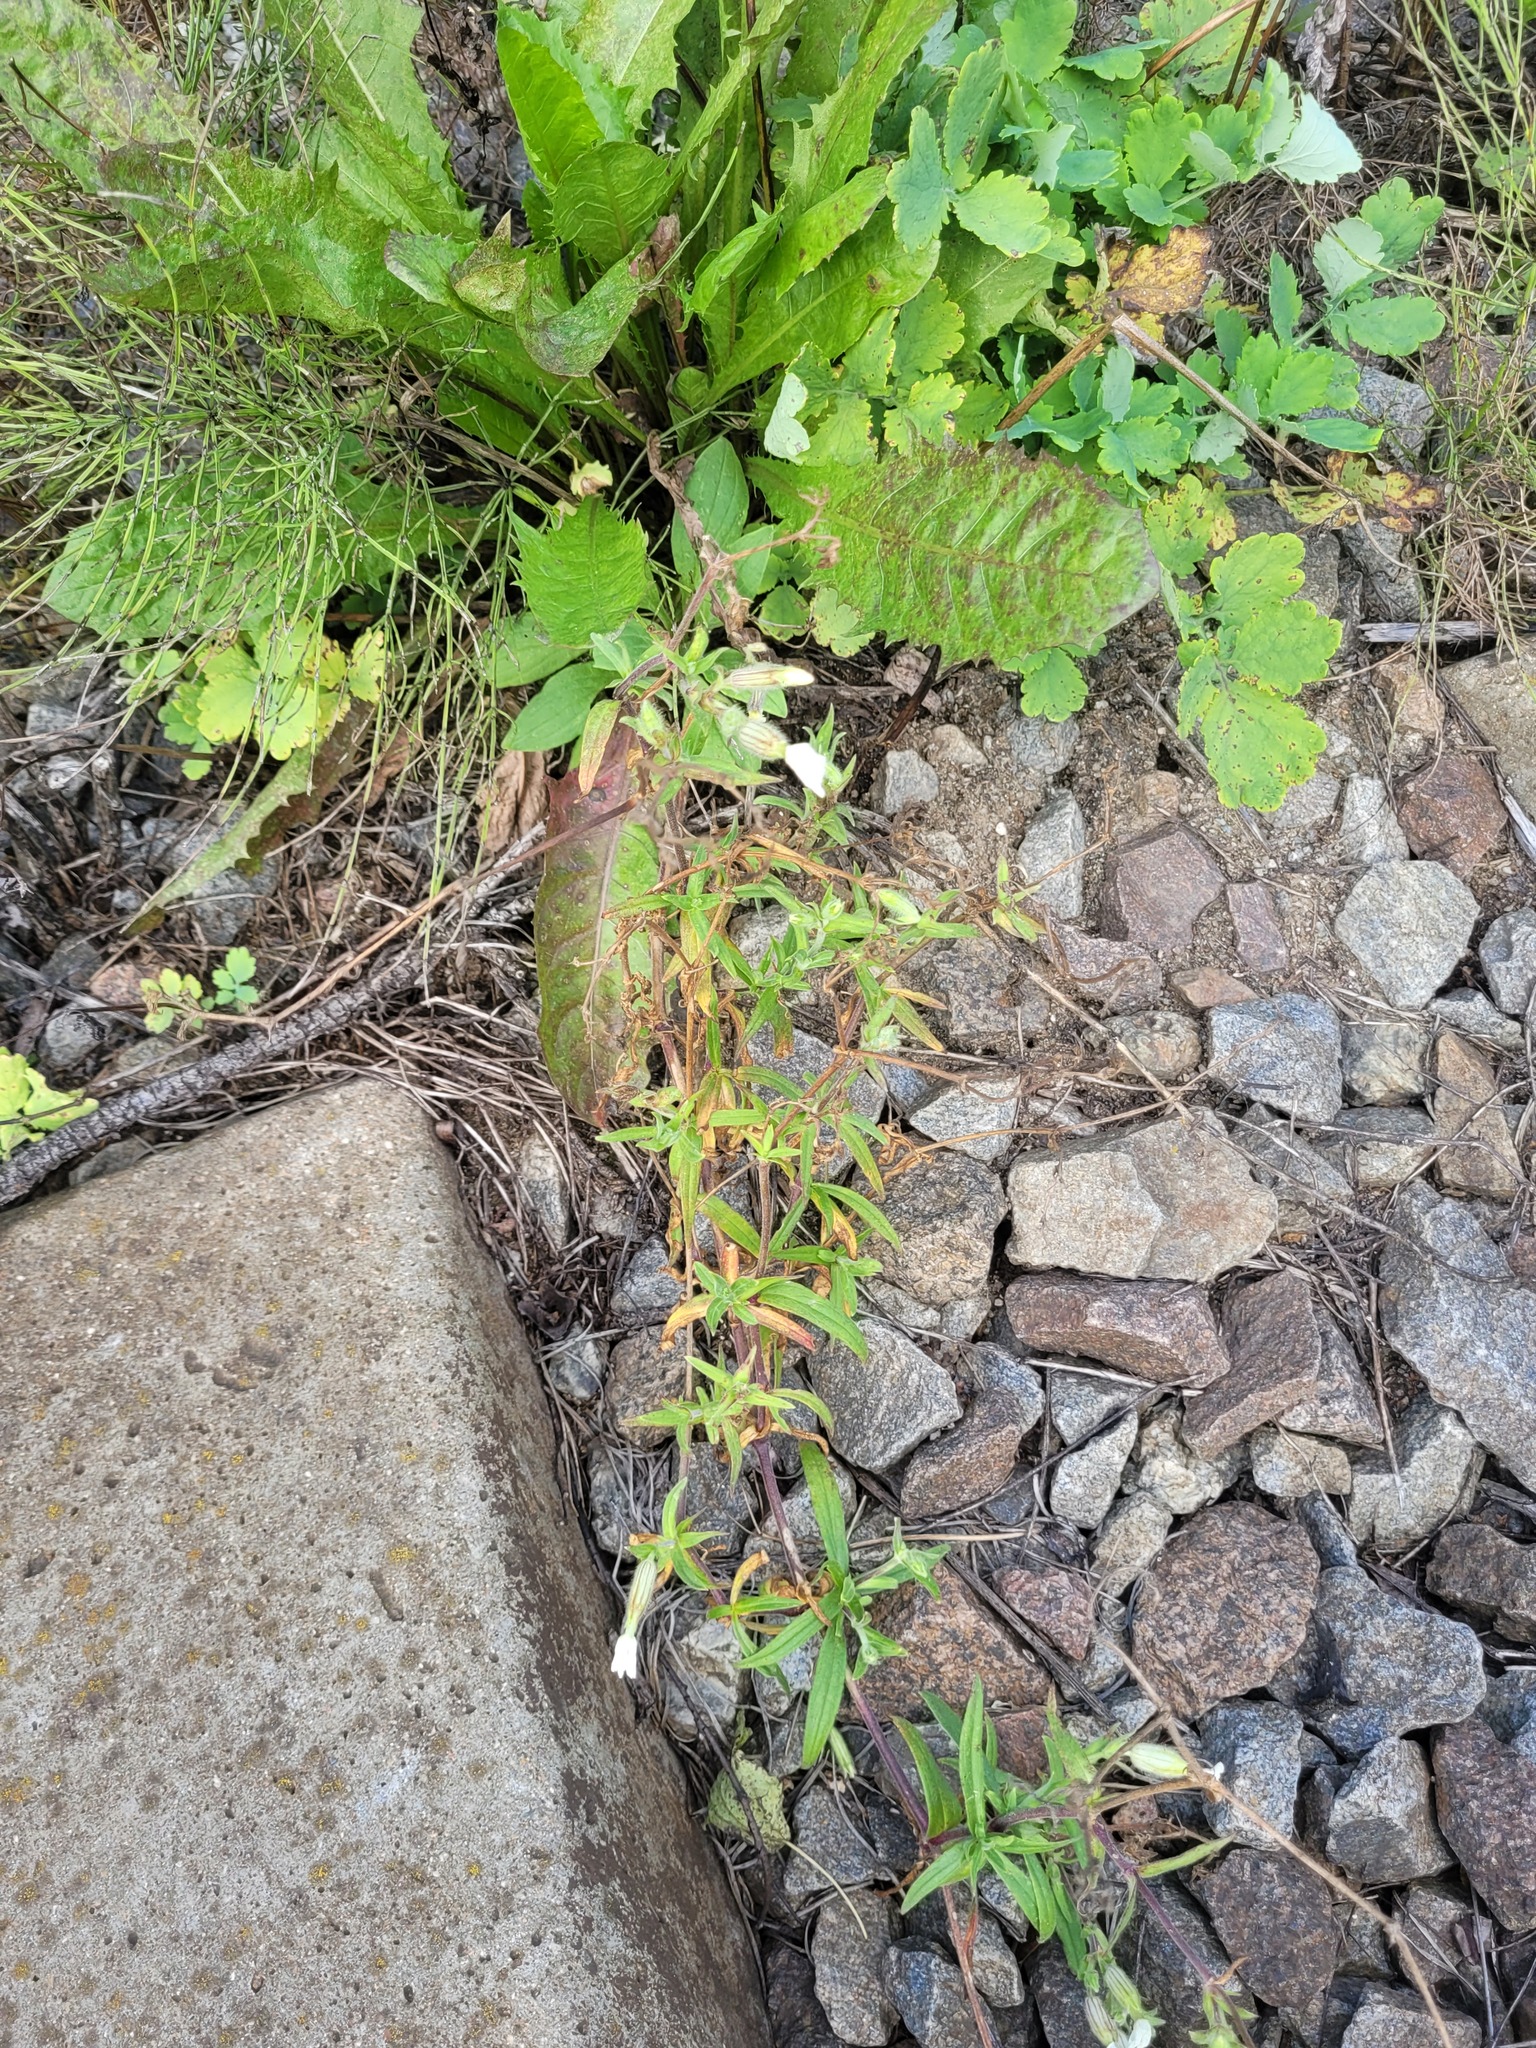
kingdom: Plantae
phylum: Tracheophyta
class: Magnoliopsida
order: Caryophyllales
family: Caryophyllaceae
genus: Silene
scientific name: Silene latifolia
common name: White campion
